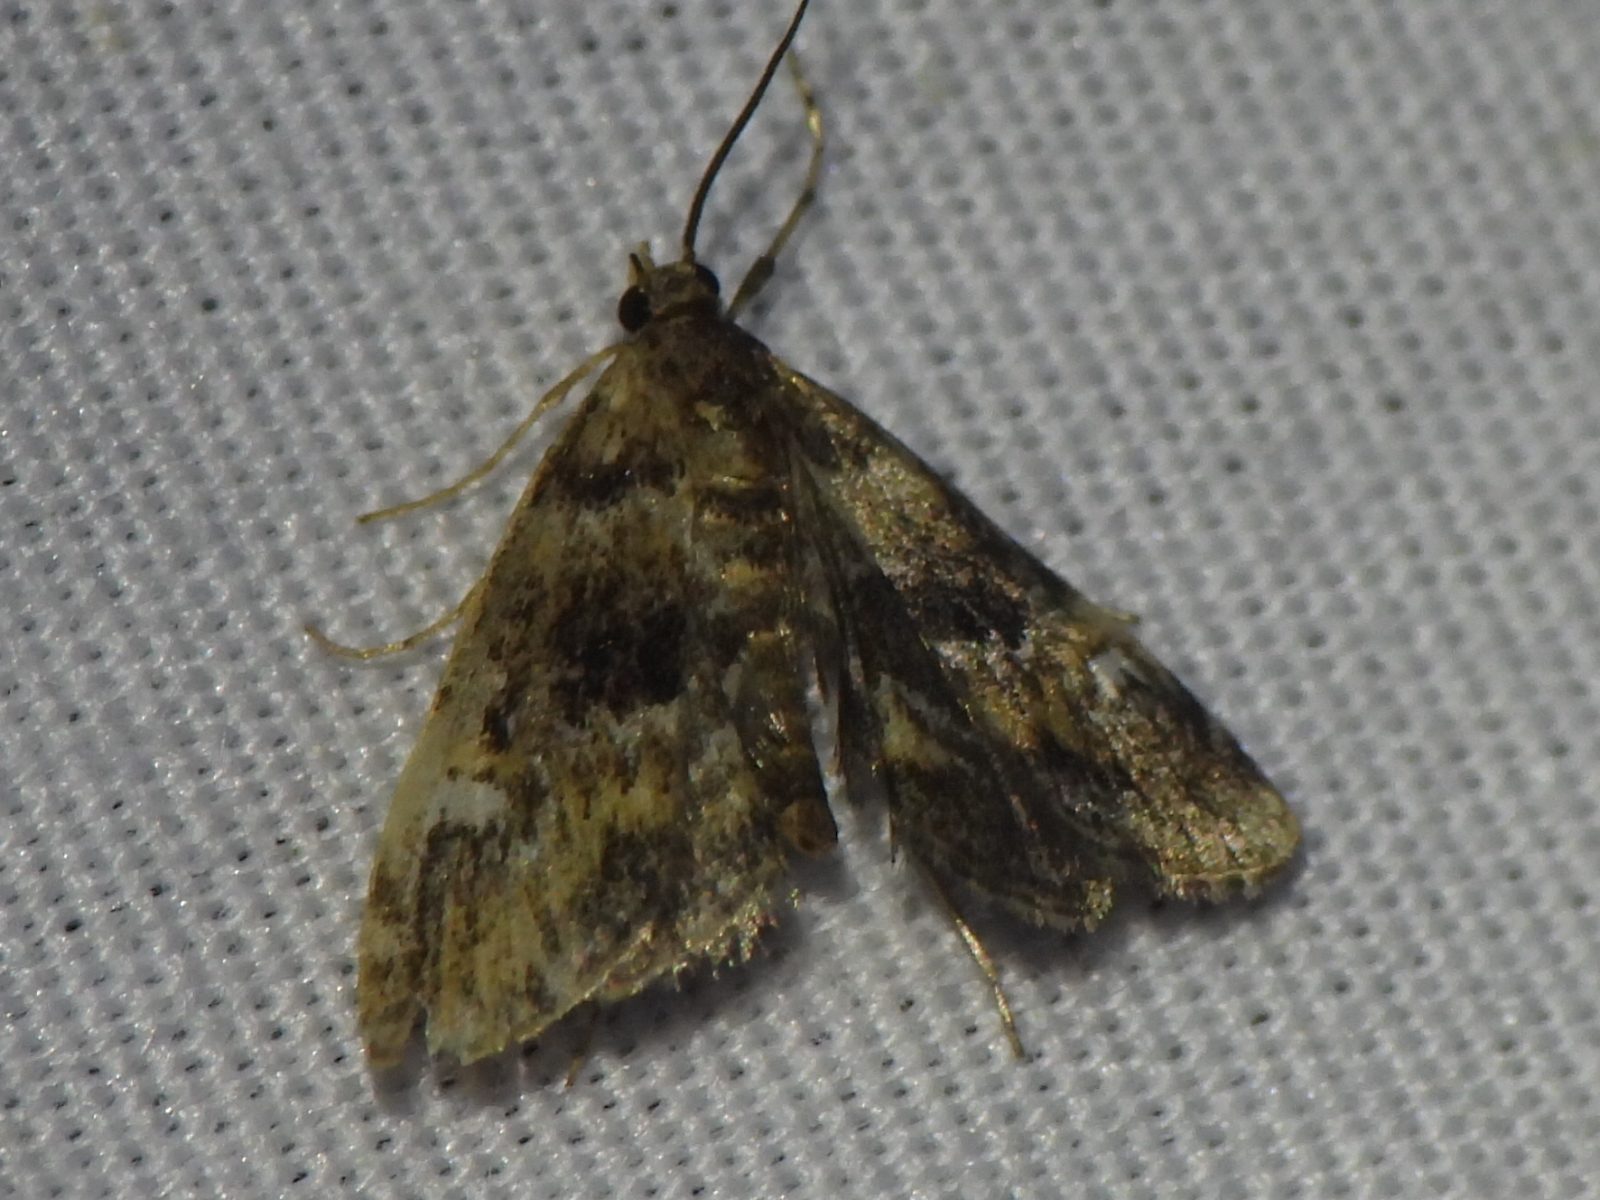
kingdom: Animalia
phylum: Arthropoda
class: Insecta
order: Lepidoptera
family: Crambidae
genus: Elophila
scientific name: Elophila obliteralis
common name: Waterlily leafcutter moth
